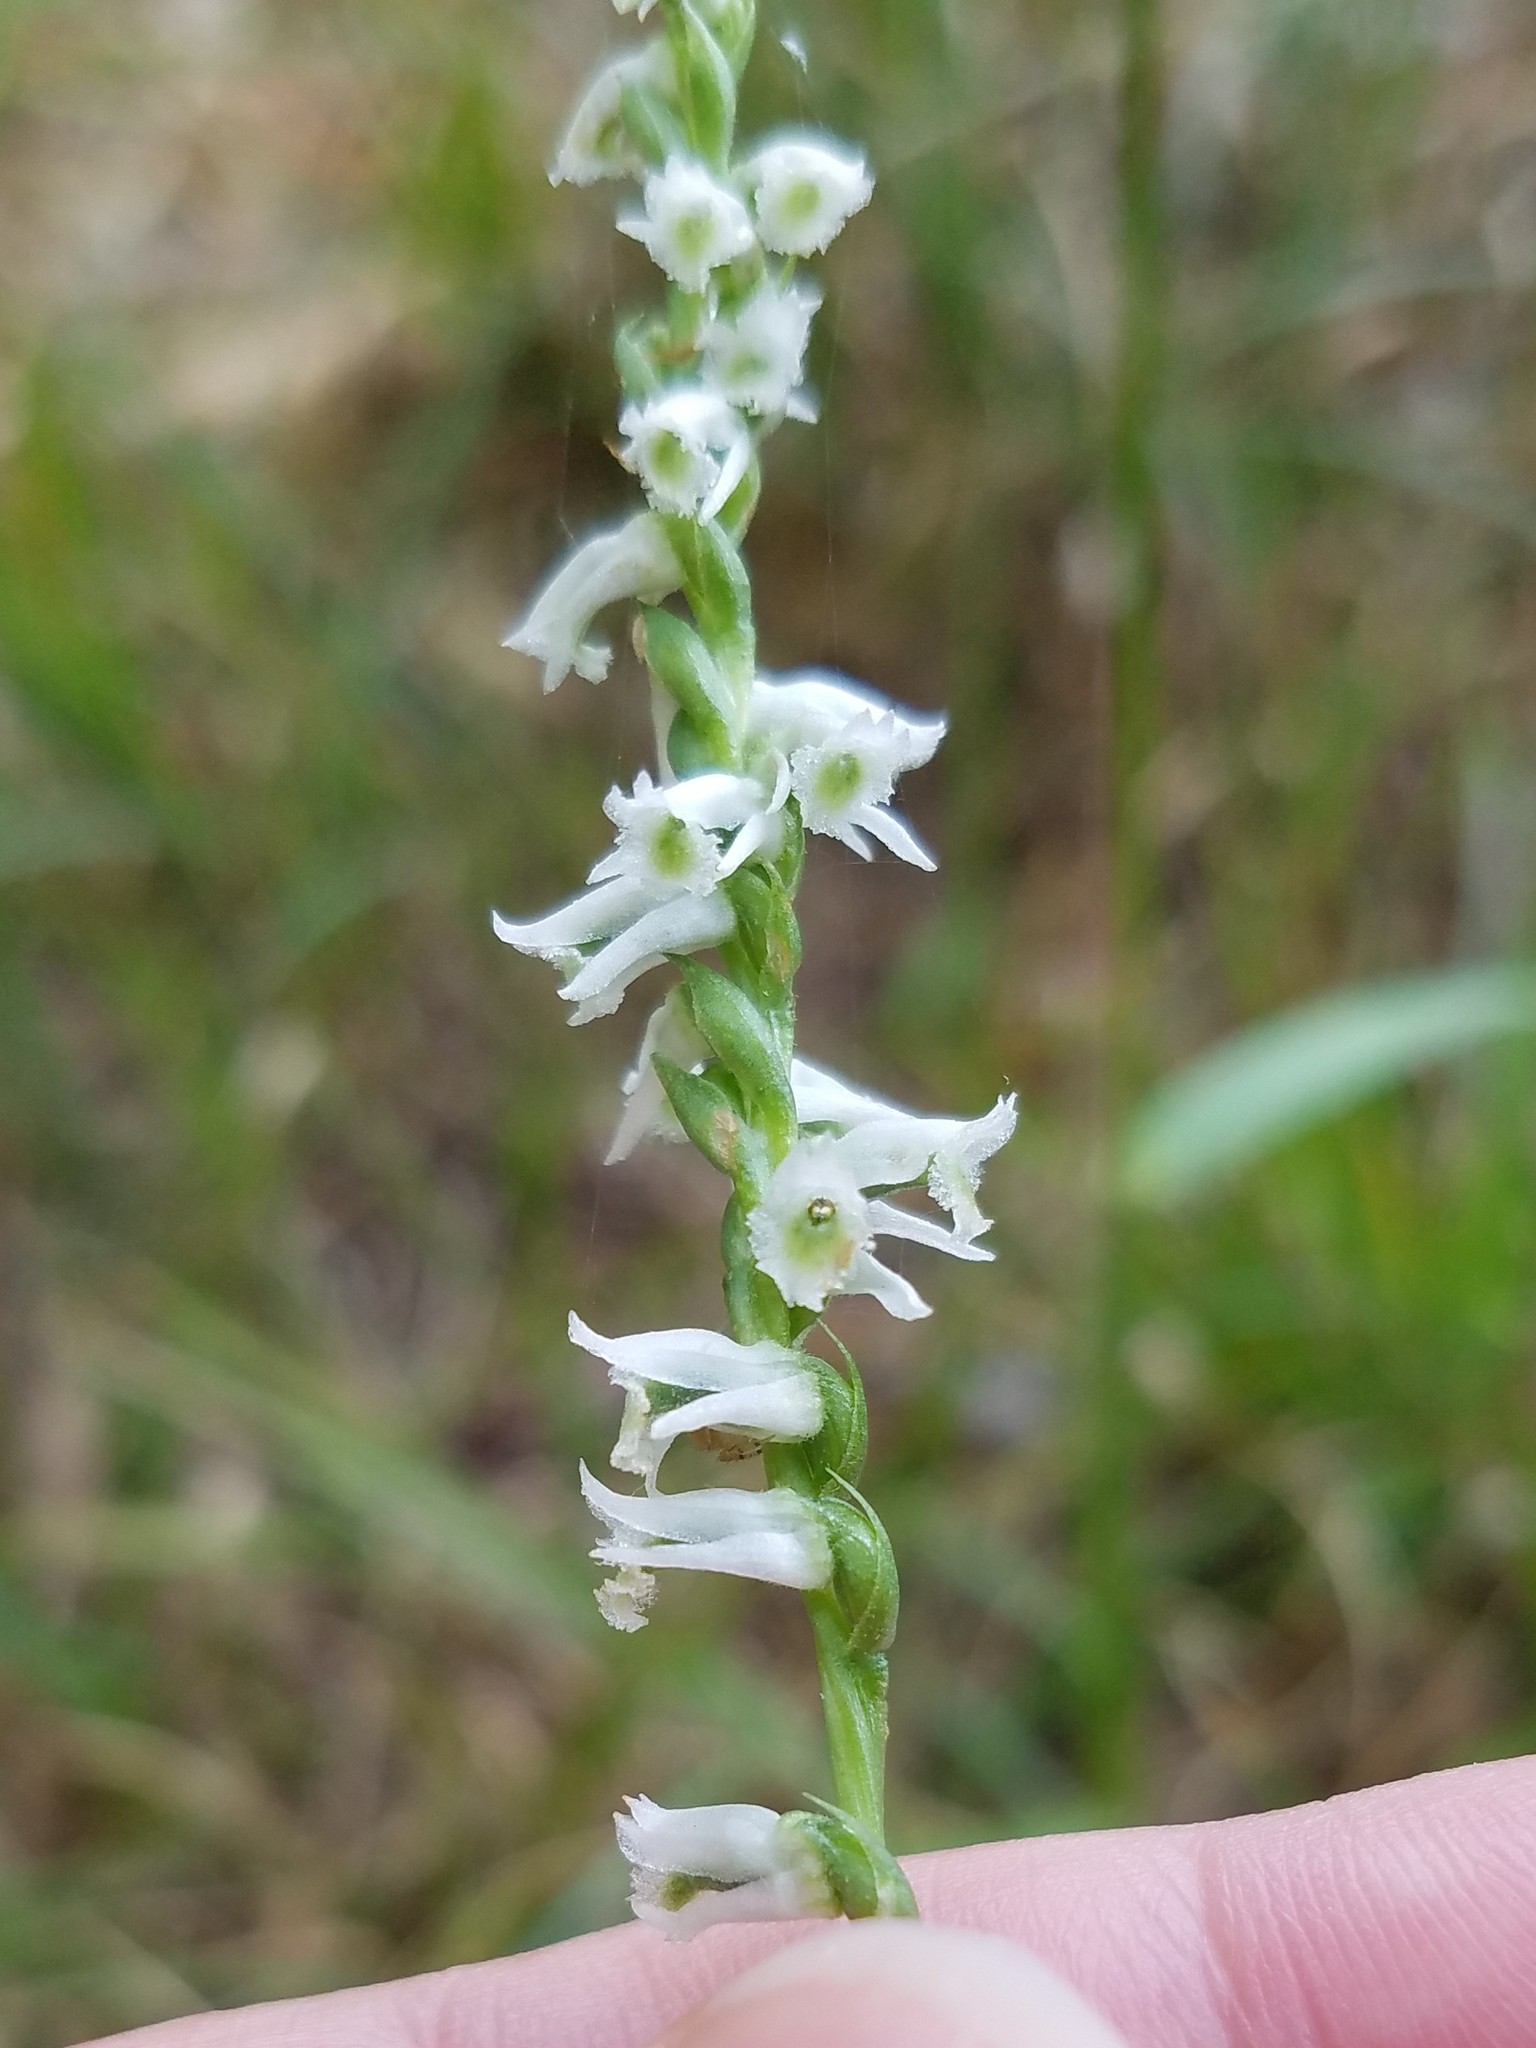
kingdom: Plantae
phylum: Tracheophyta
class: Liliopsida
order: Asparagales
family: Orchidaceae
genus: Spiranthes
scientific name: Spiranthes lacera
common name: Northern slender ladies'-tresses
